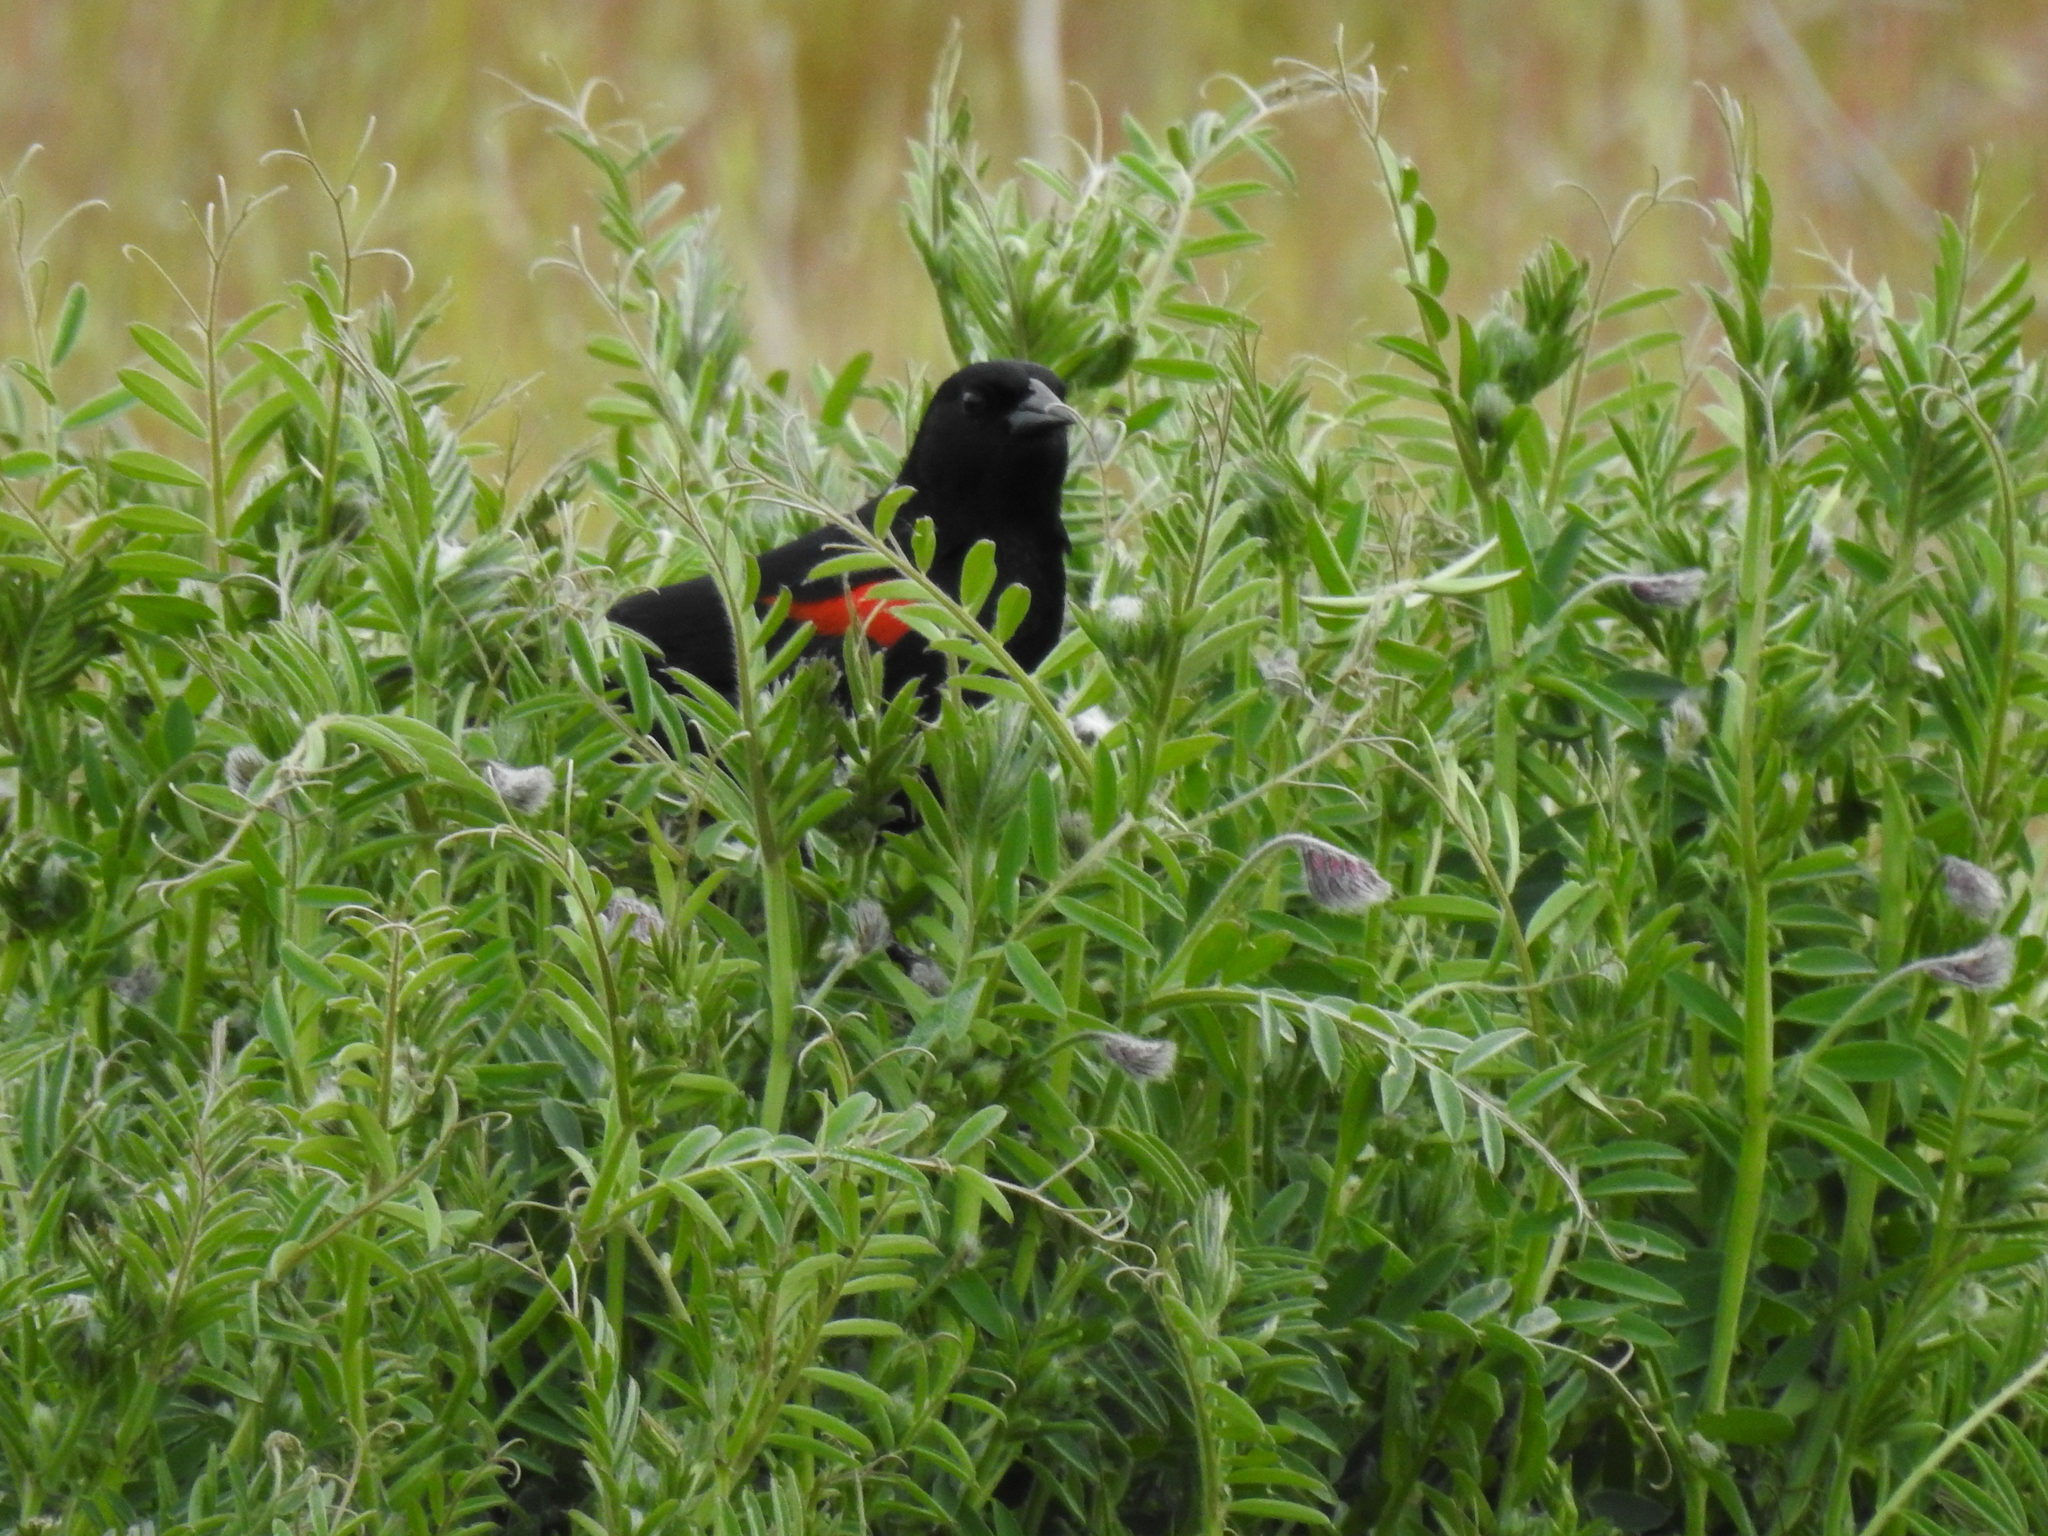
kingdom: Animalia
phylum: Chordata
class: Aves
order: Passeriformes
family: Icteridae
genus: Agelaius
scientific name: Agelaius phoeniceus
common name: Red-winged blackbird
